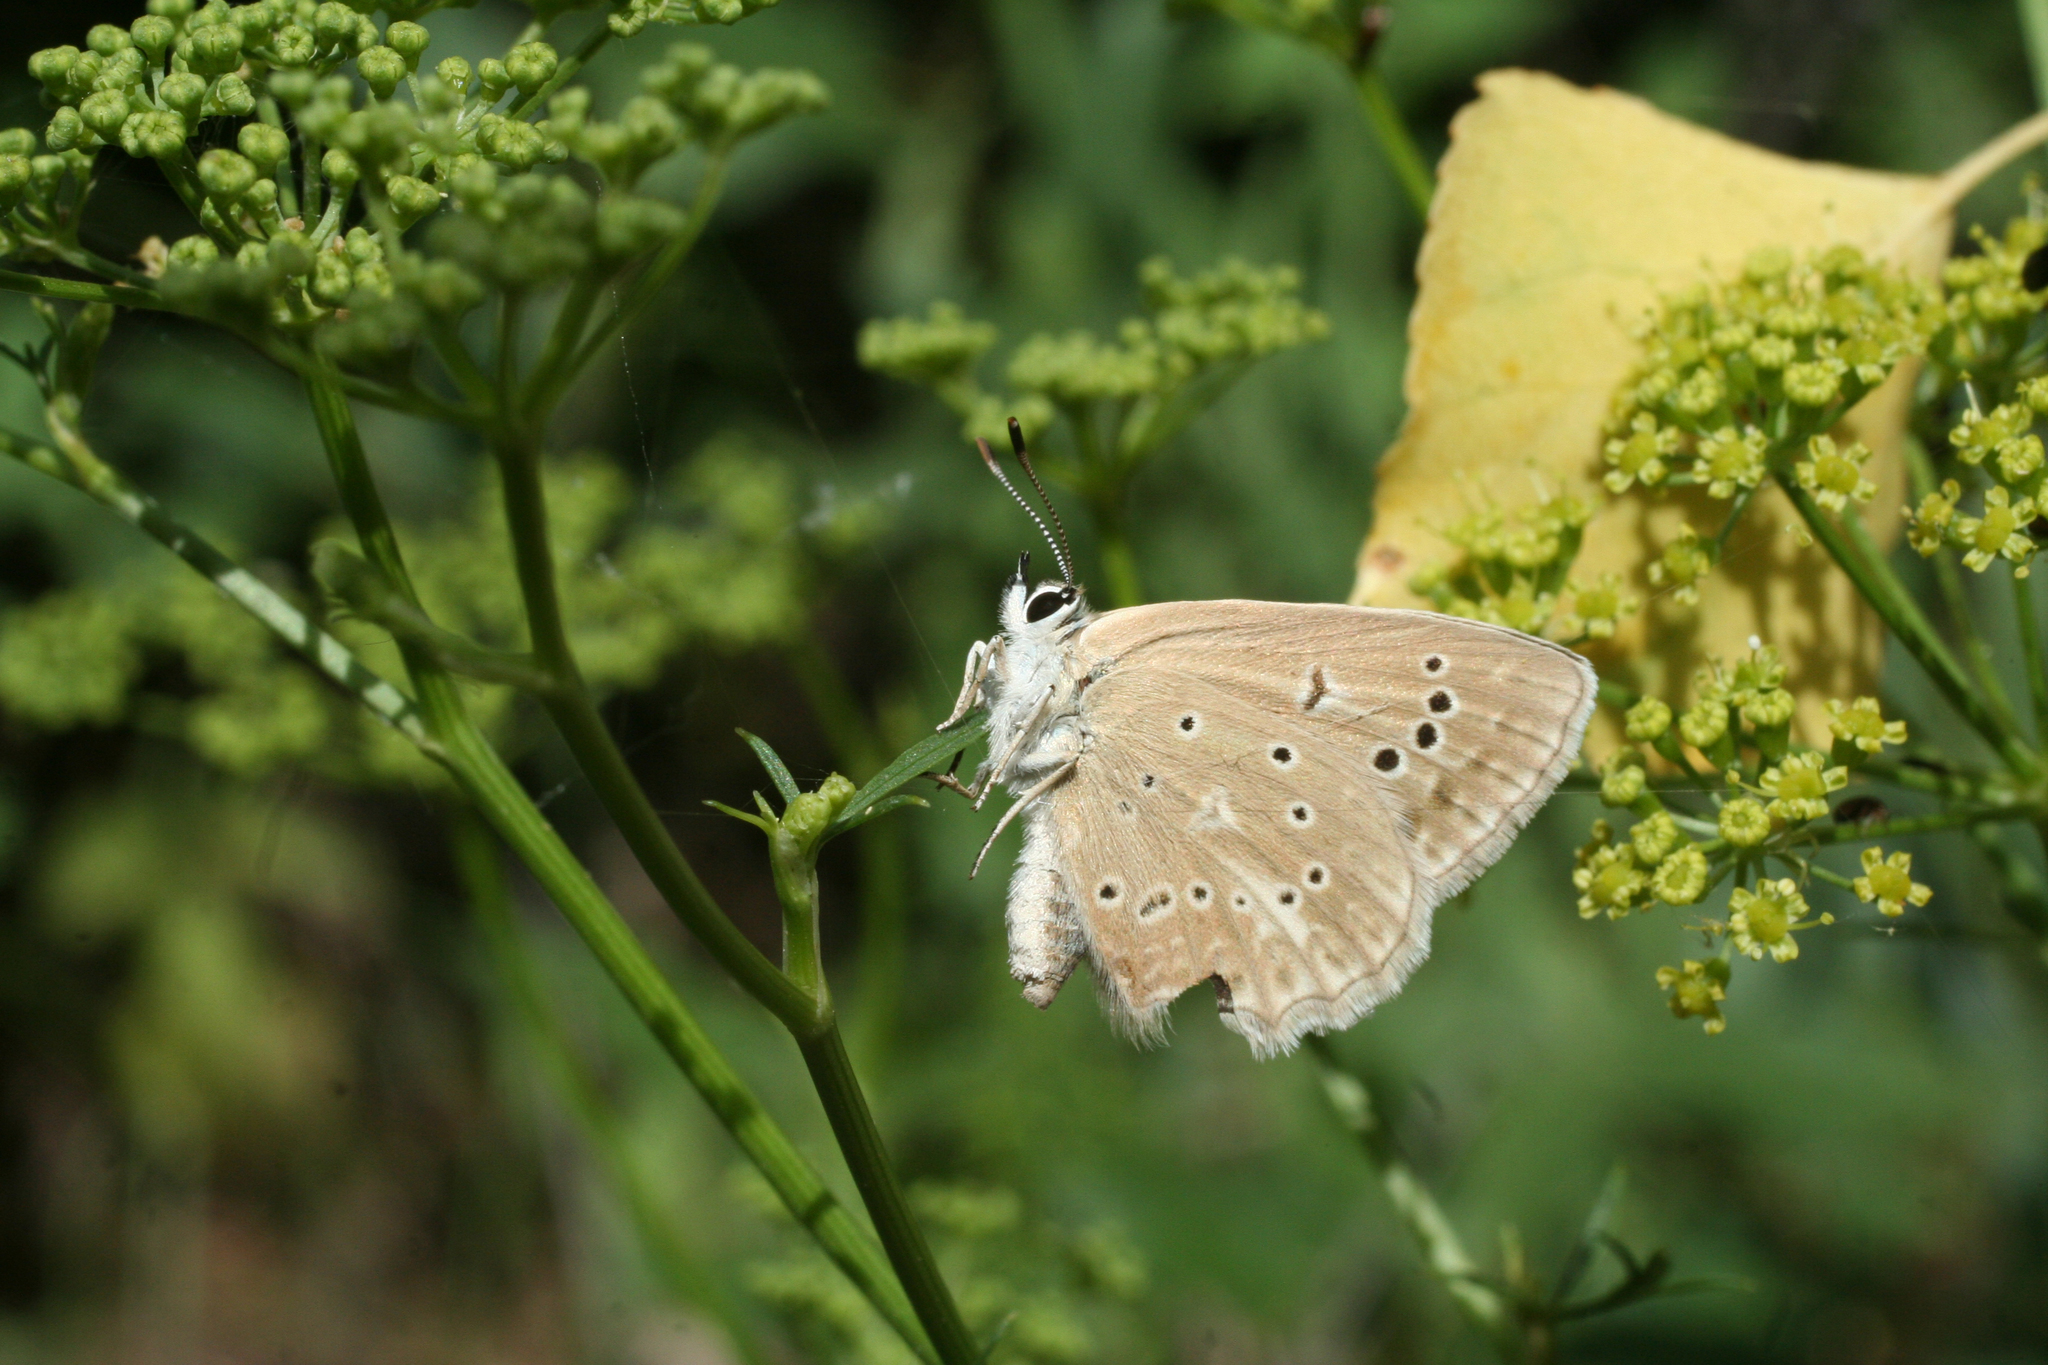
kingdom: Plantae
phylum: Tracheophyta
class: Magnoliopsida
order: Apiales
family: Apiaceae
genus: Silaum
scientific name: Silaum silaus
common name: Pepper-saxifrage
